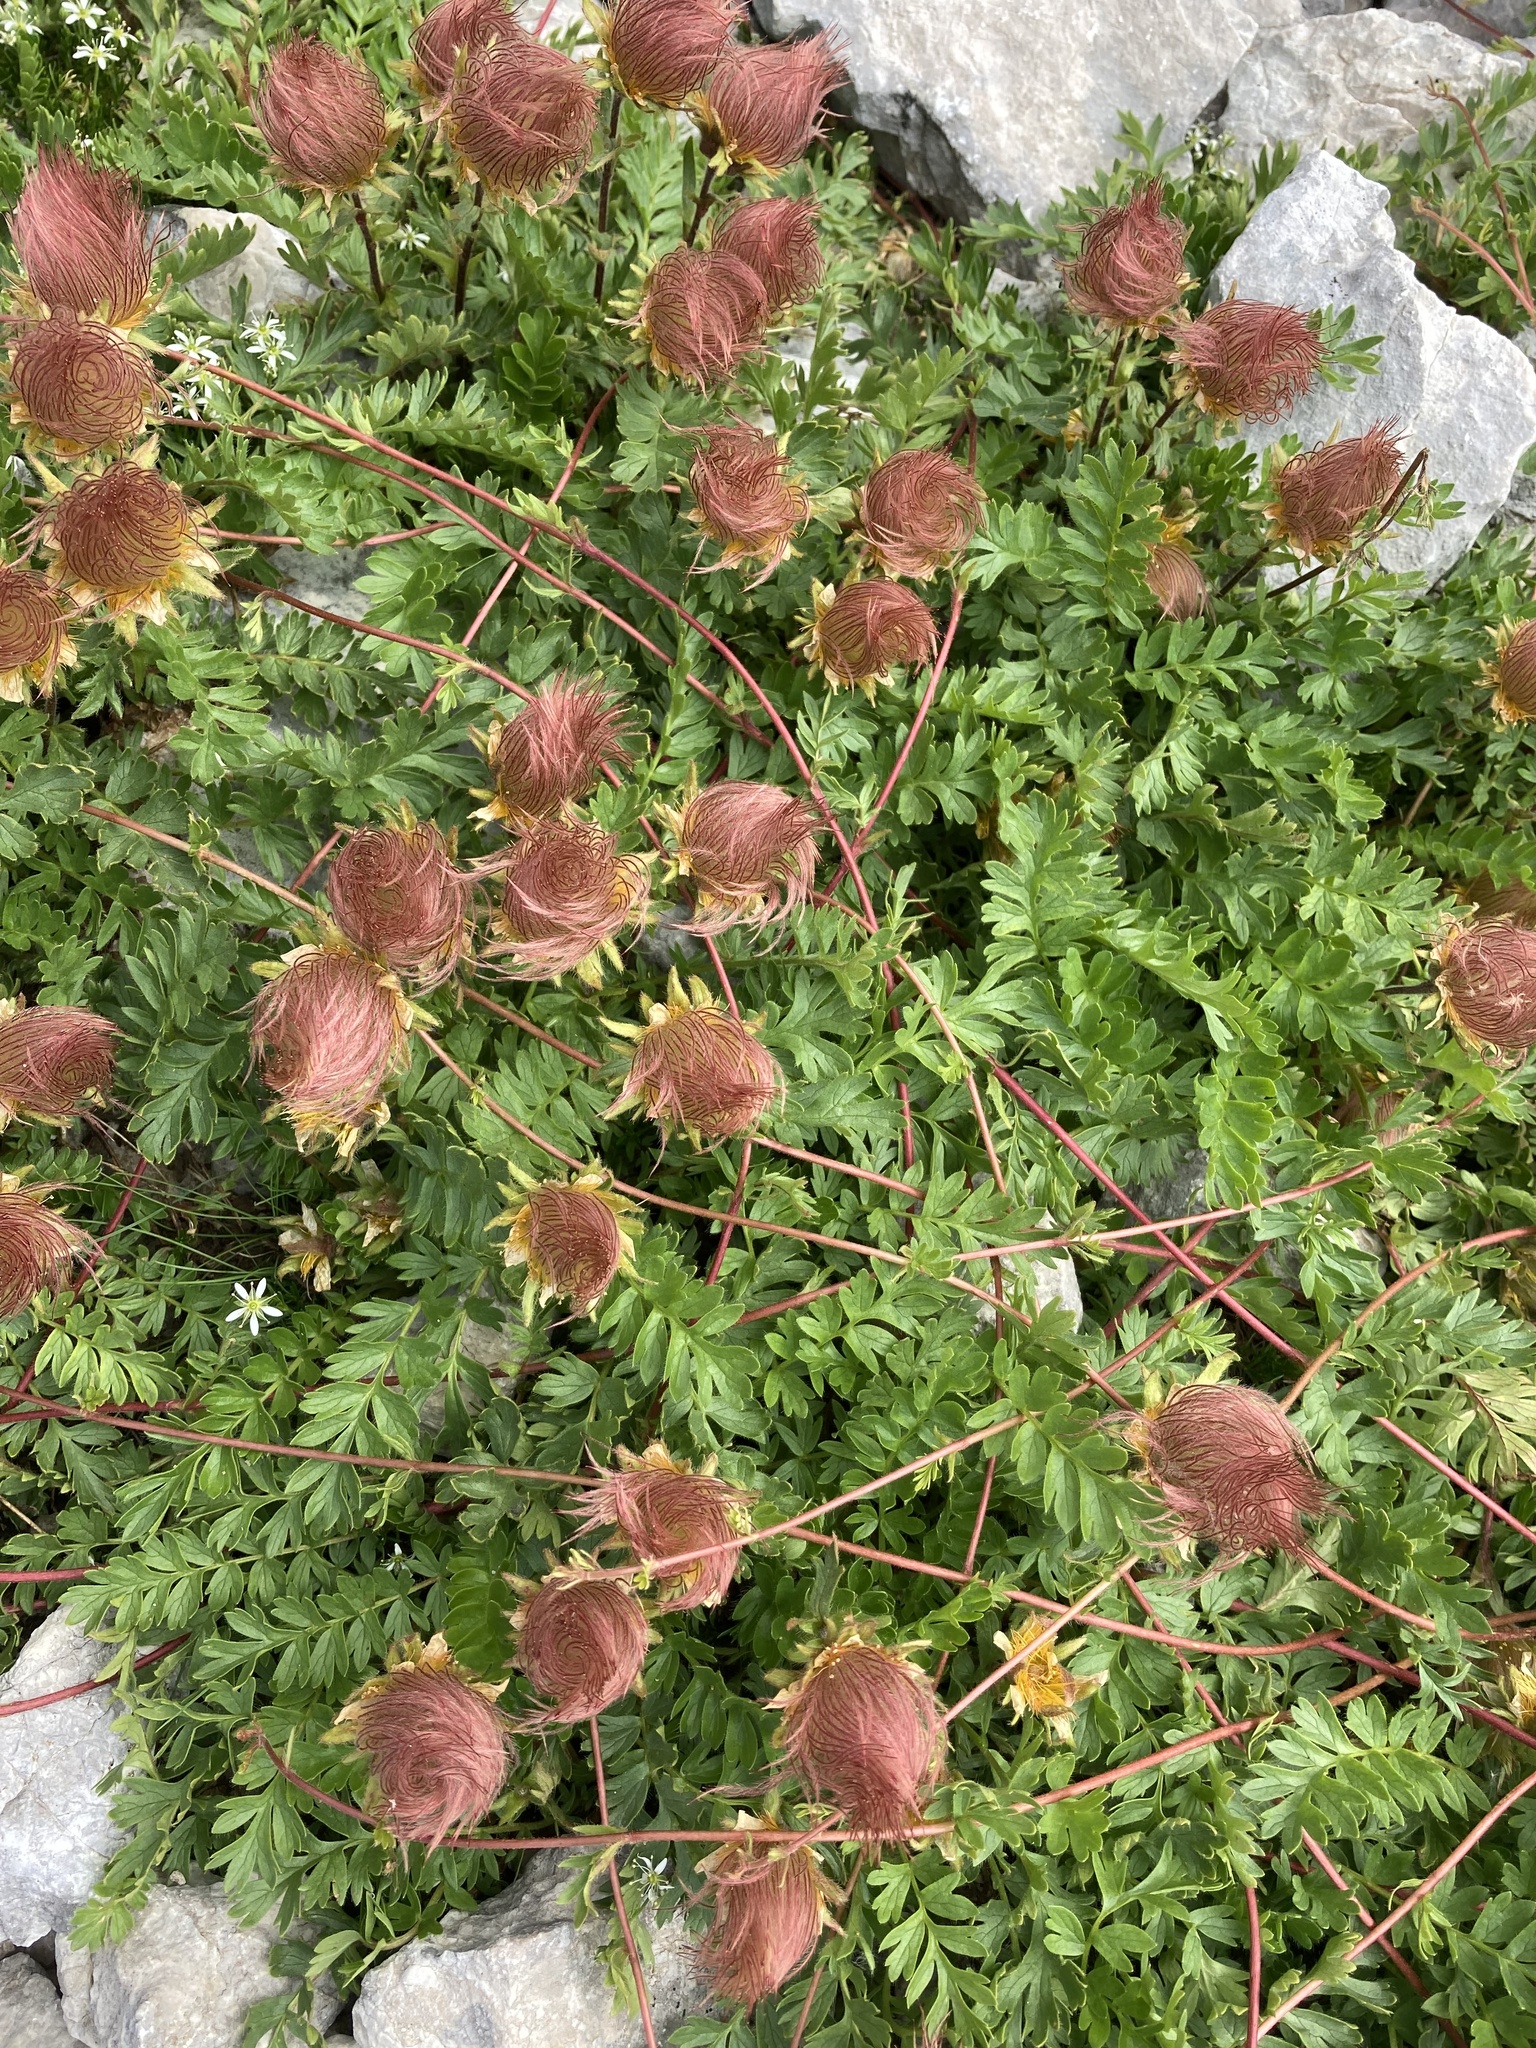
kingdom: Plantae
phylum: Tracheophyta
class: Magnoliopsida
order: Rosales
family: Rosaceae
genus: Geum
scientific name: Geum reptans
